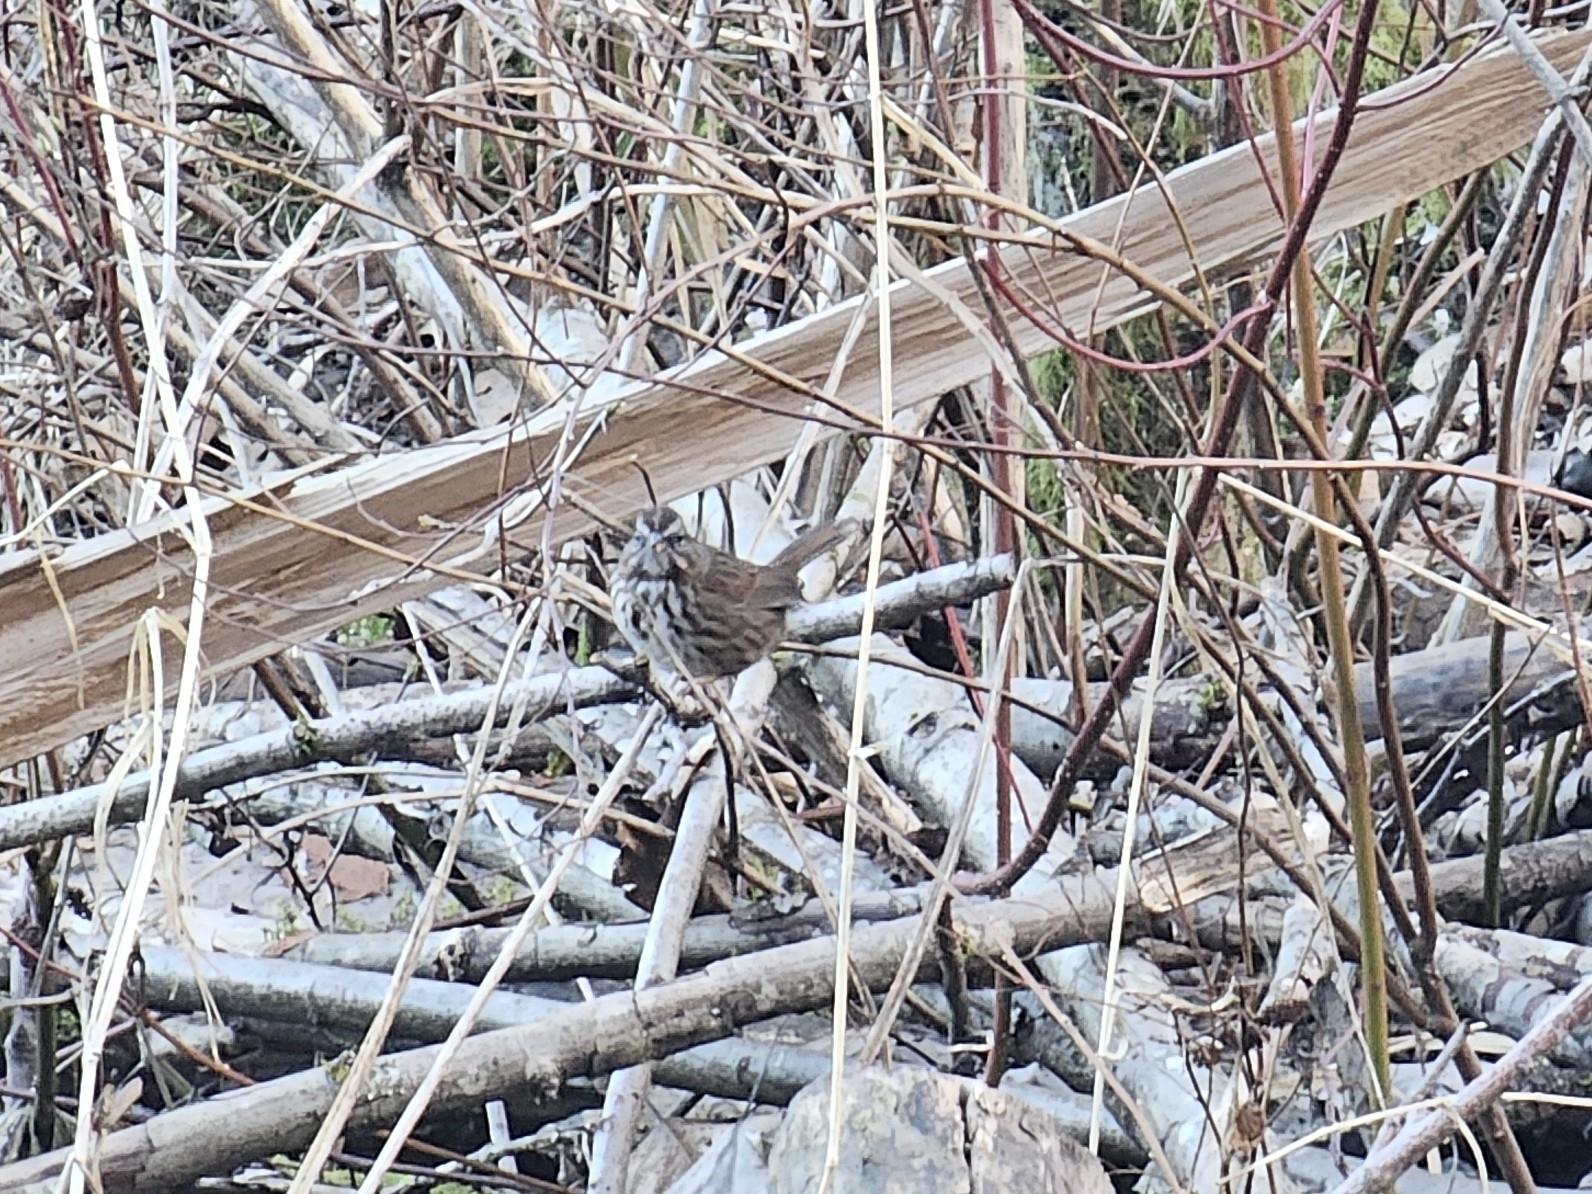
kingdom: Animalia
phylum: Chordata
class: Aves
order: Passeriformes
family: Passerellidae
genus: Melospiza
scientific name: Melospiza melodia
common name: Song sparrow
